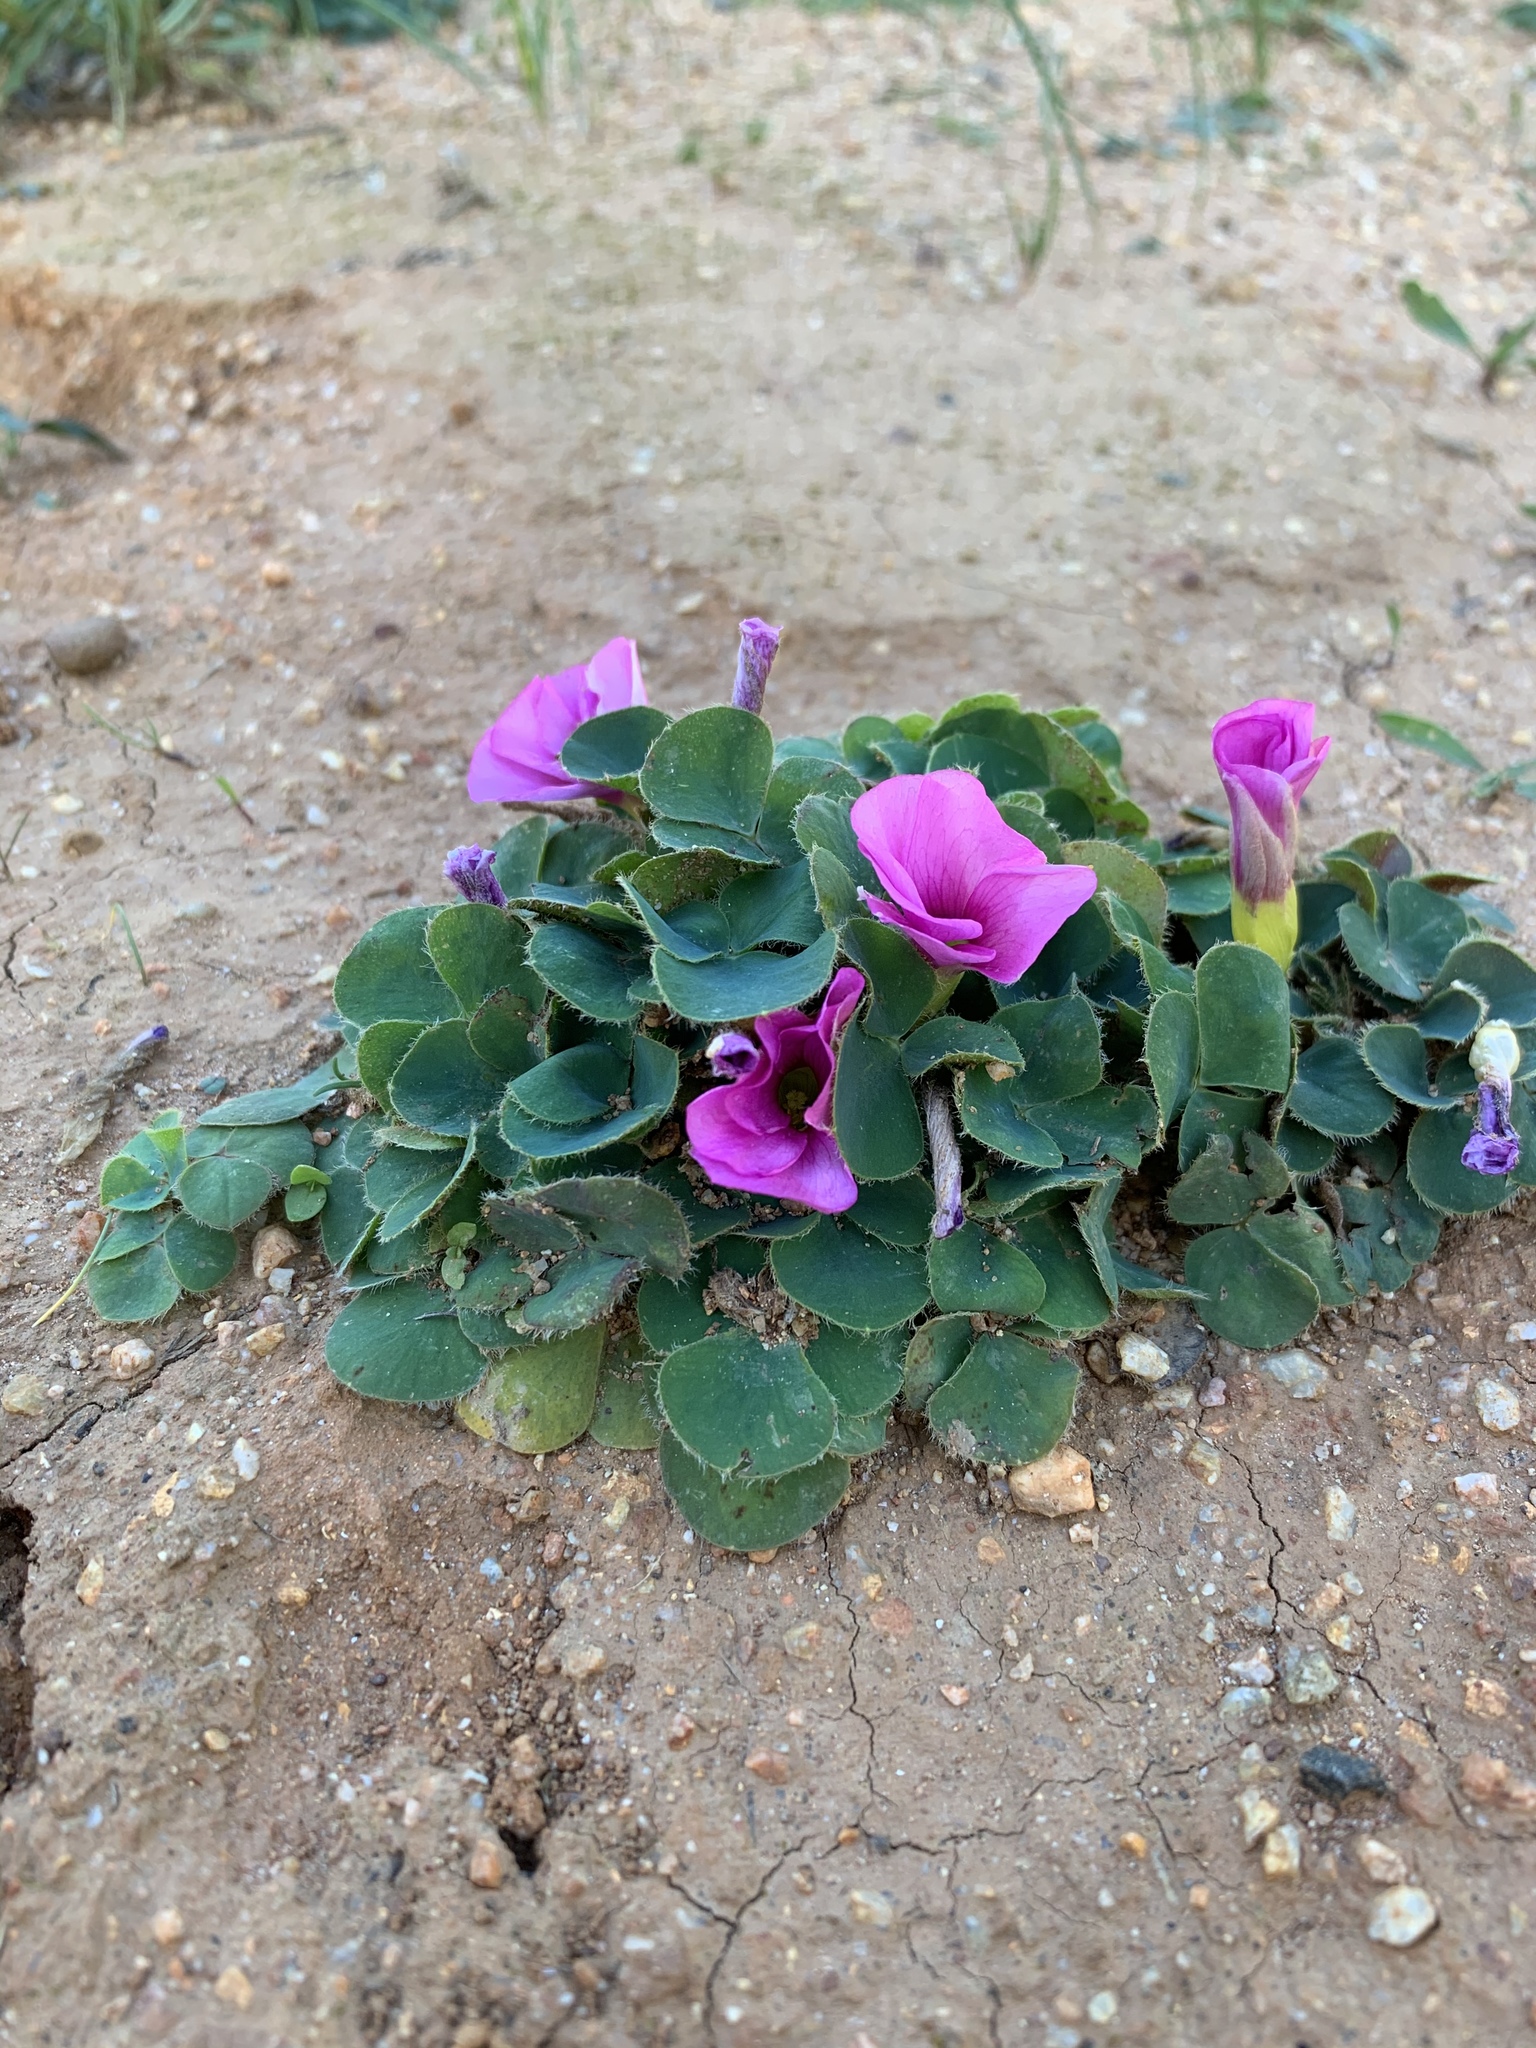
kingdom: Plantae
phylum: Tracheophyta
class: Magnoliopsida
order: Oxalidales
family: Oxalidaceae
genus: Oxalis
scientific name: Oxalis purpurea
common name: Purple woodsorrel
